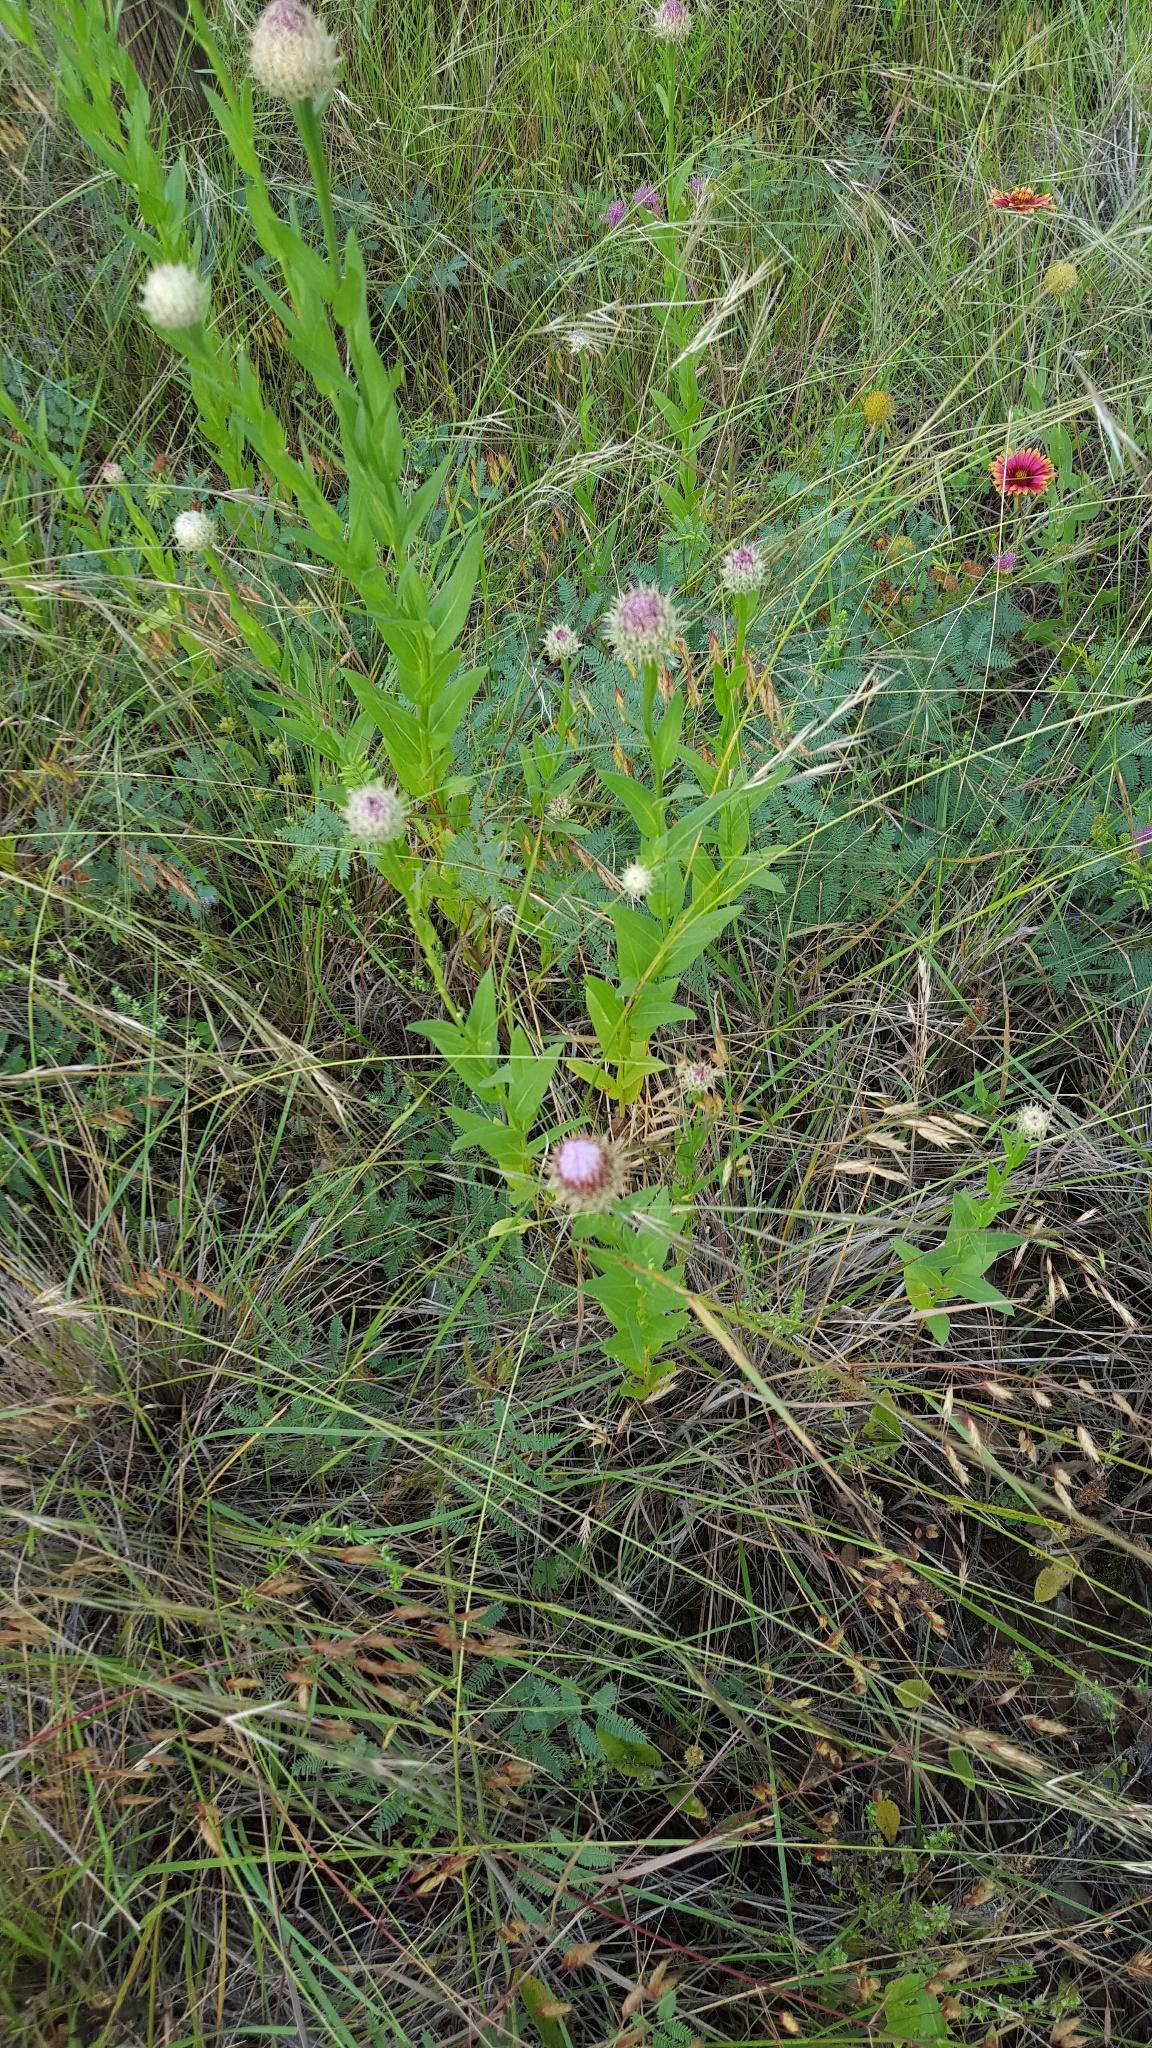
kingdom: Plantae
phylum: Tracheophyta
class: Magnoliopsida
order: Lamiales
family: Lamiaceae
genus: Monarda
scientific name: Monarda clinopodioides
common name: Basil beebalm
